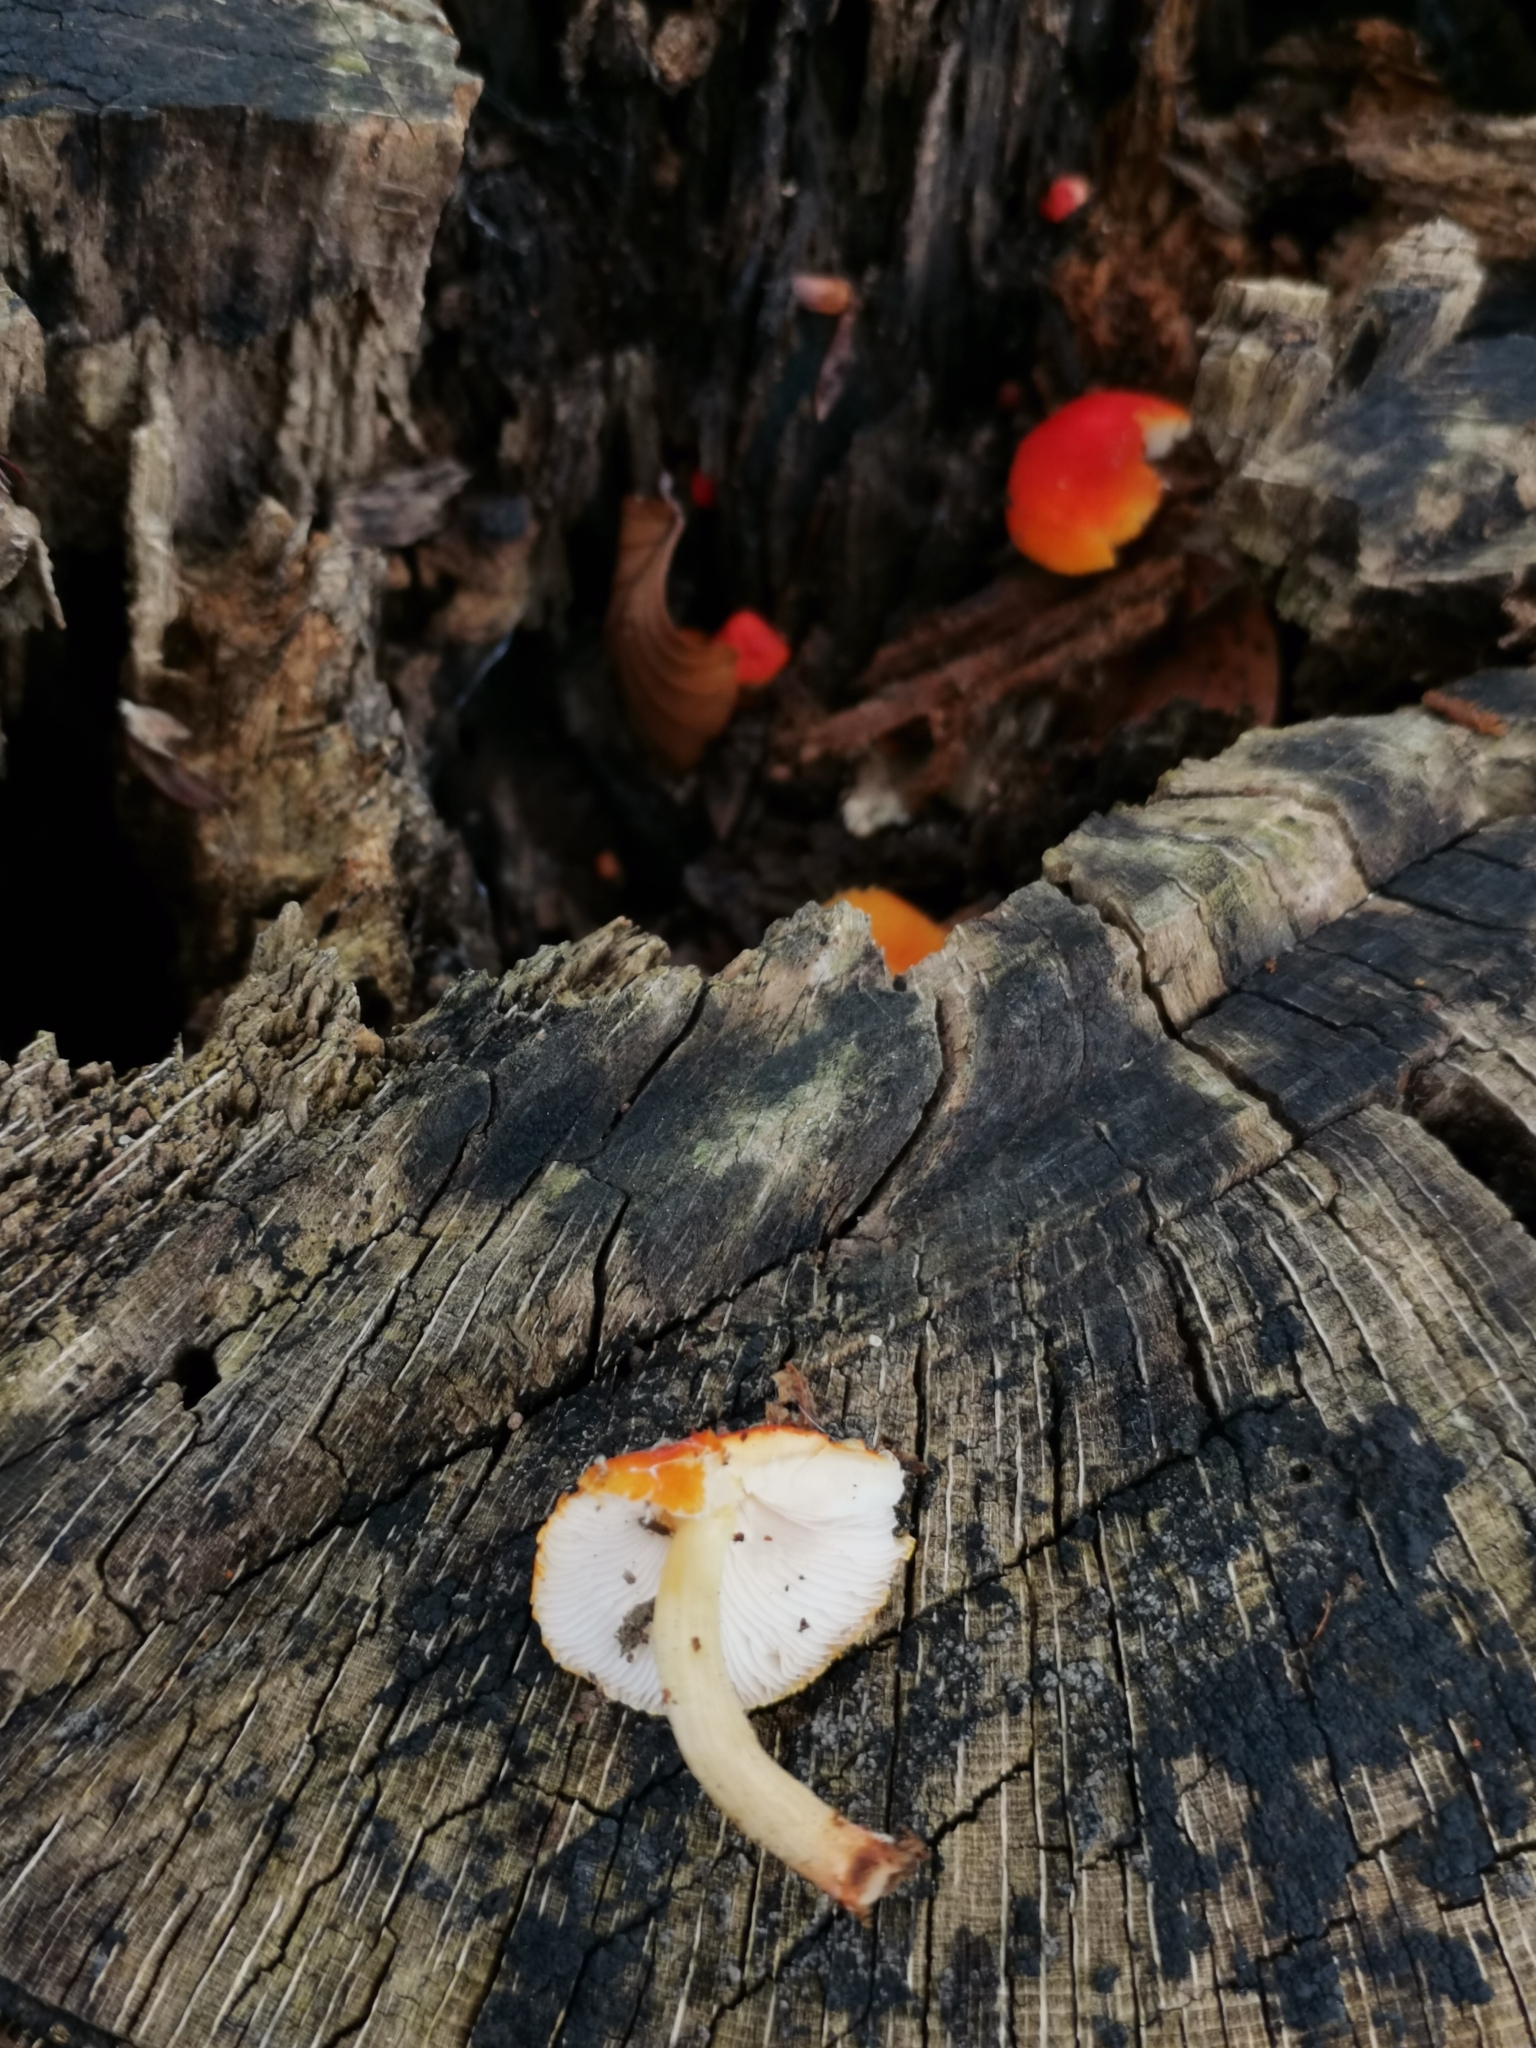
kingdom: Fungi
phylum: Basidiomycota
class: Agaricomycetes
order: Agaricales
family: Pluteaceae
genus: Pluteus
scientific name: Pluteus aurantiorugosus
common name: Flame shield
